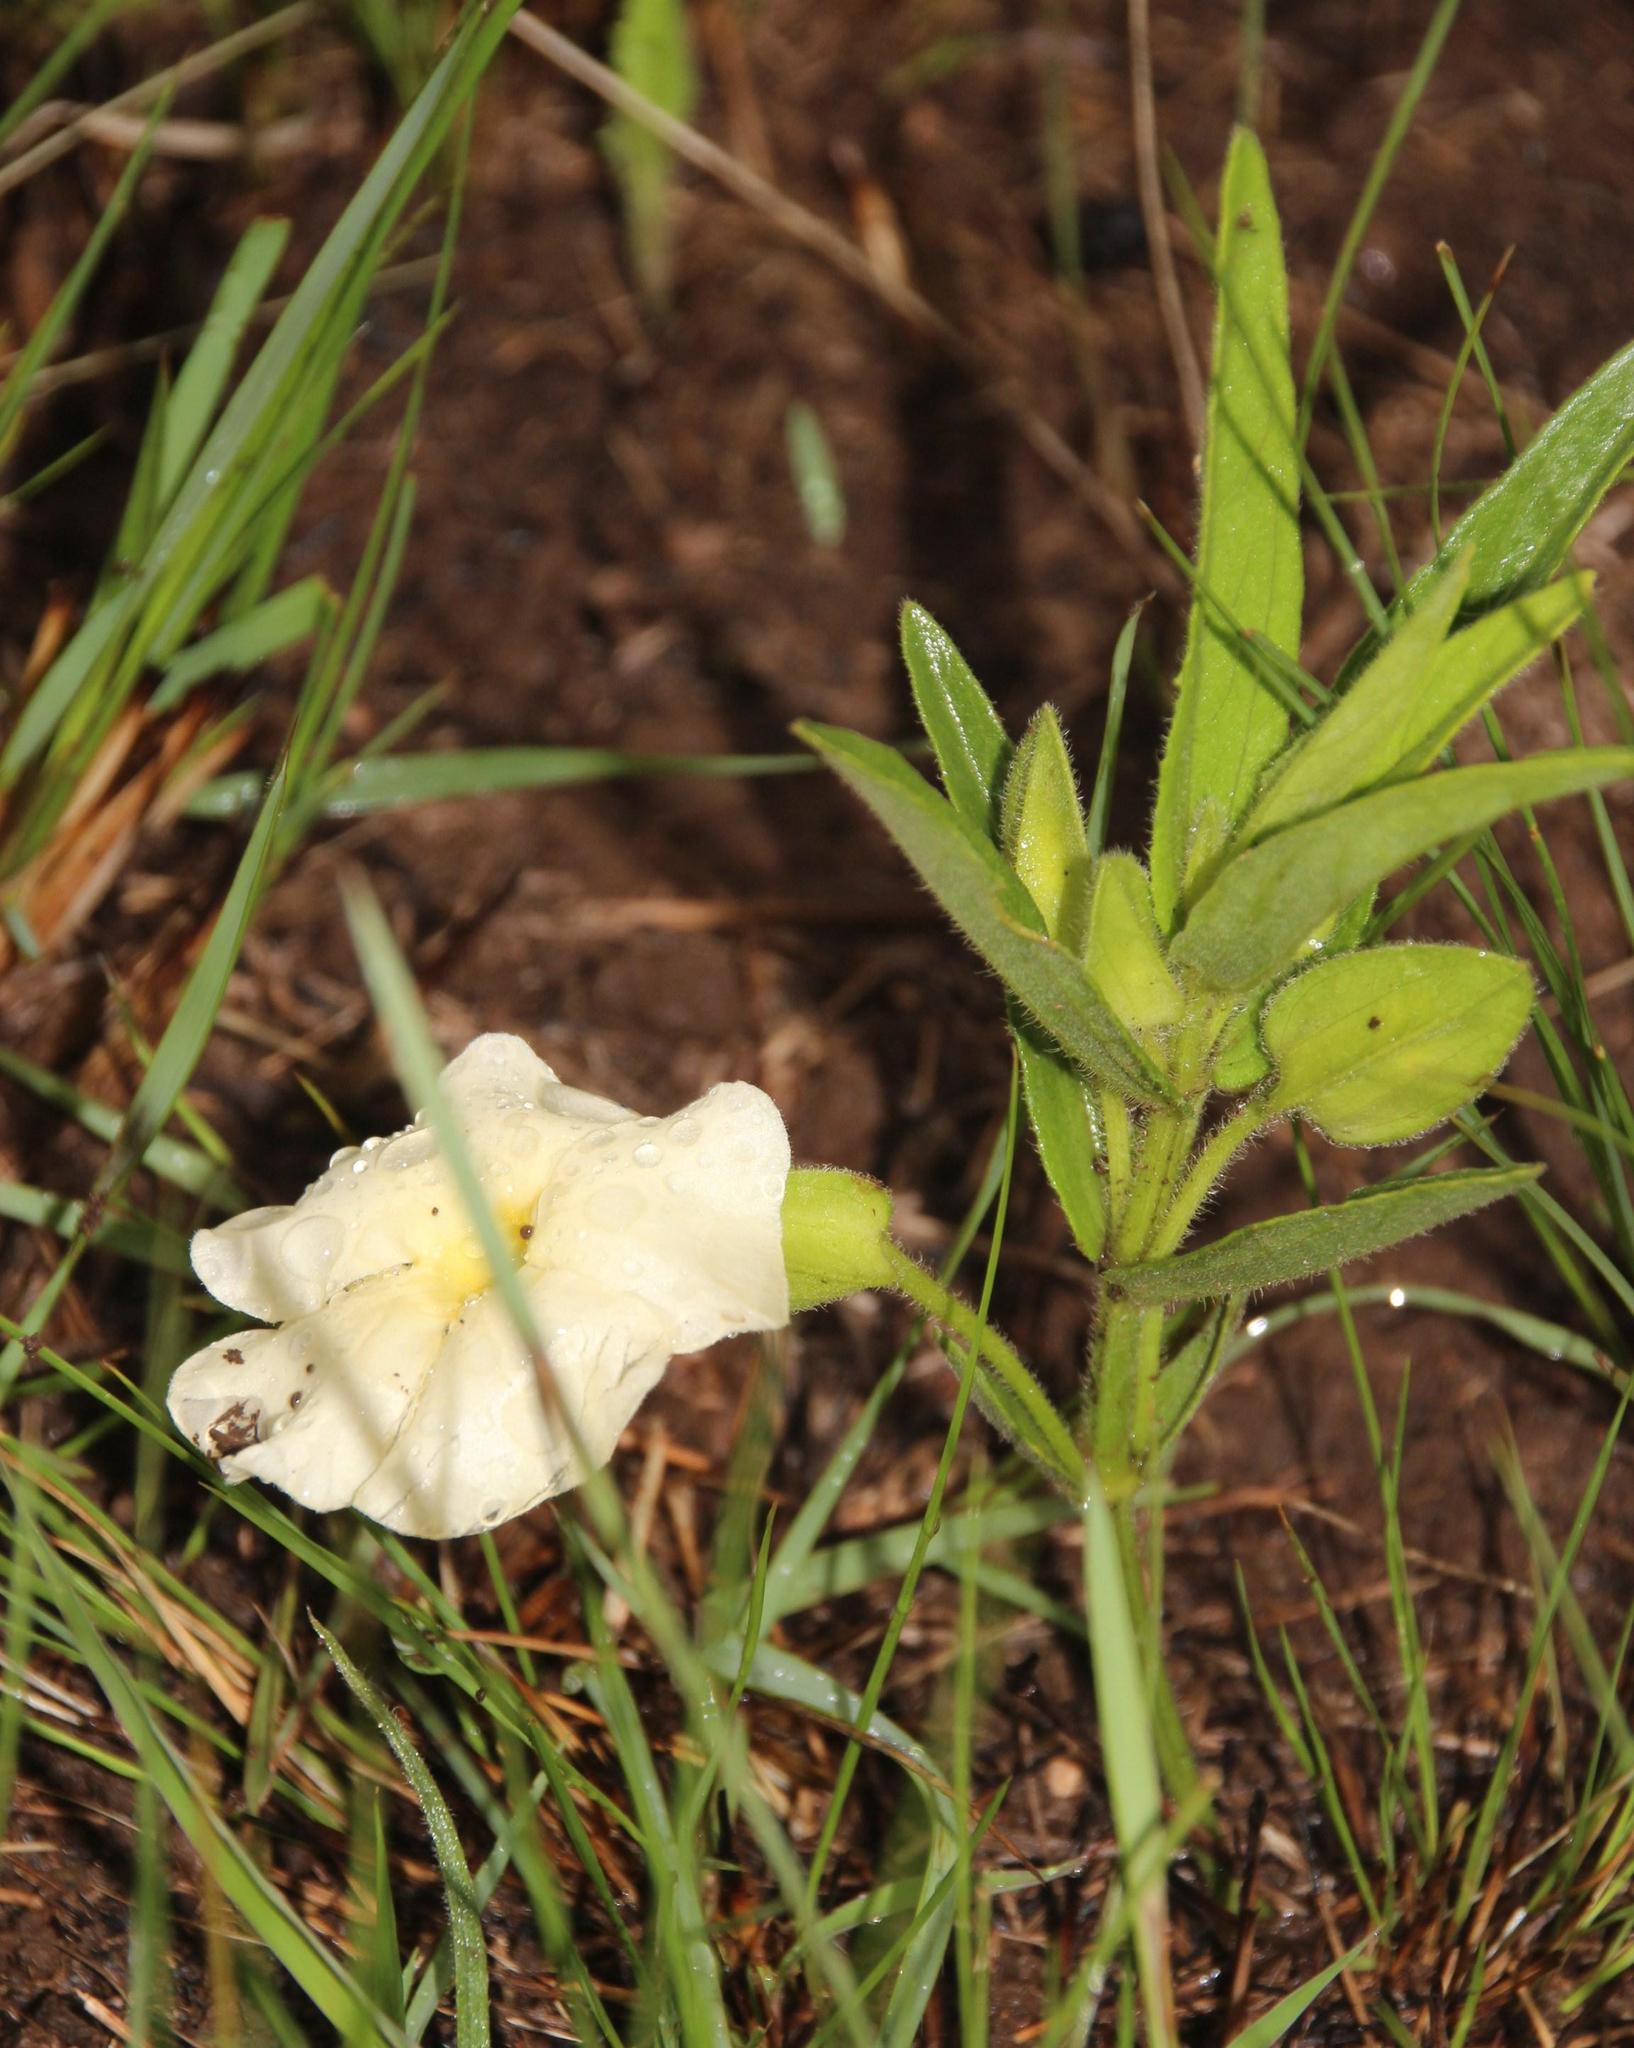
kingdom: Plantae
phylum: Tracheophyta
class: Magnoliopsida
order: Lamiales
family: Acanthaceae
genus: Thunbergia
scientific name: Thunbergia atriplicifolia
